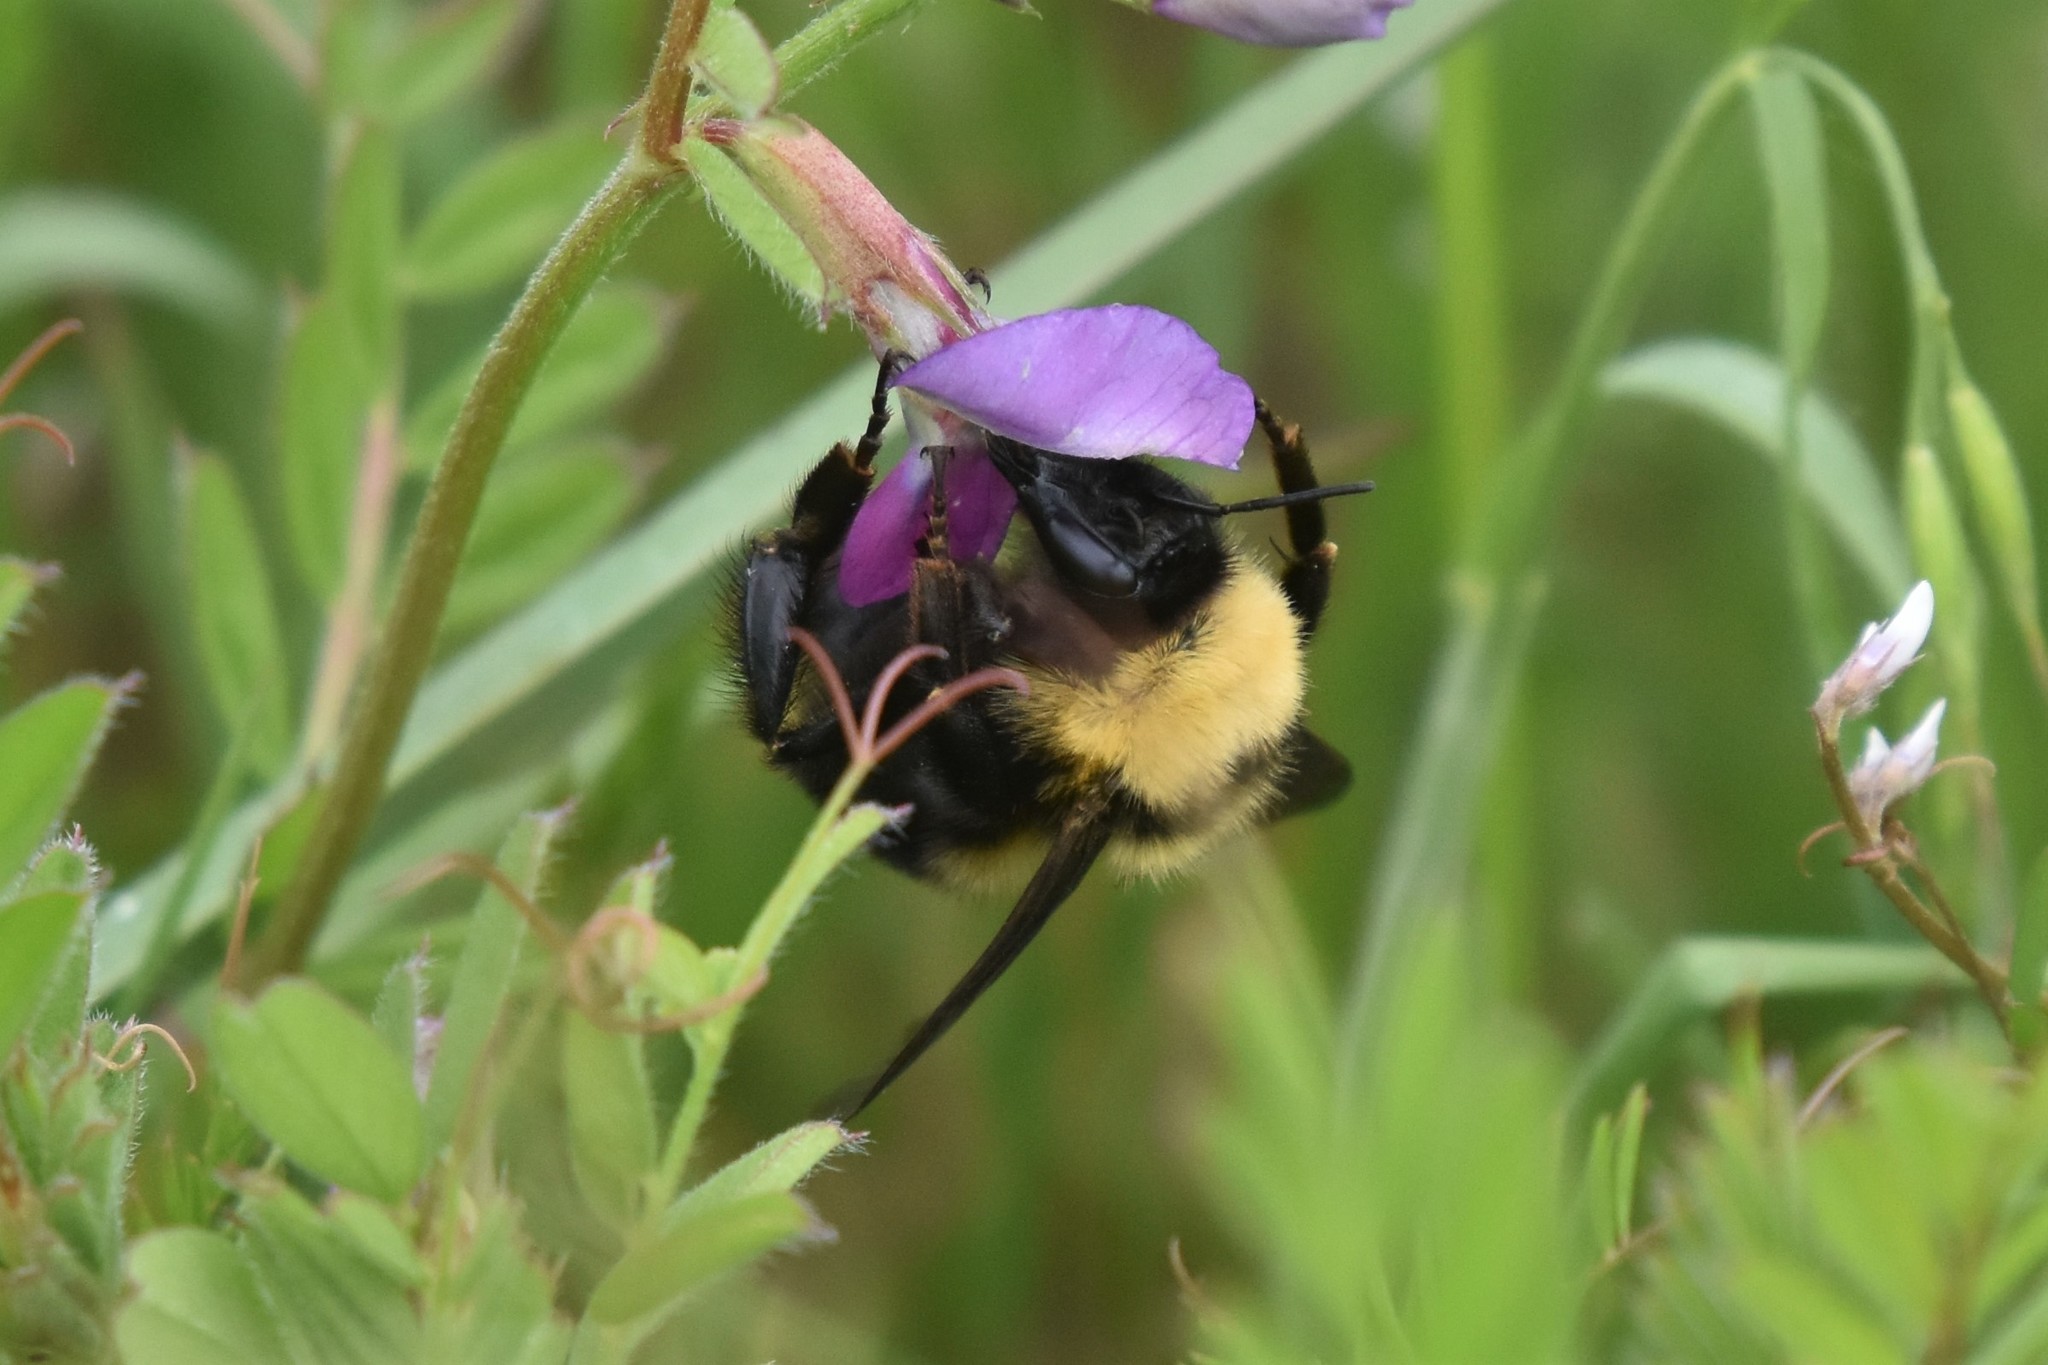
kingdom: Animalia
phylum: Arthropoda
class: Insecta
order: Hymenoptera
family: Apidae
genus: Bombus
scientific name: Bombus californicus
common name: California bumble bee
